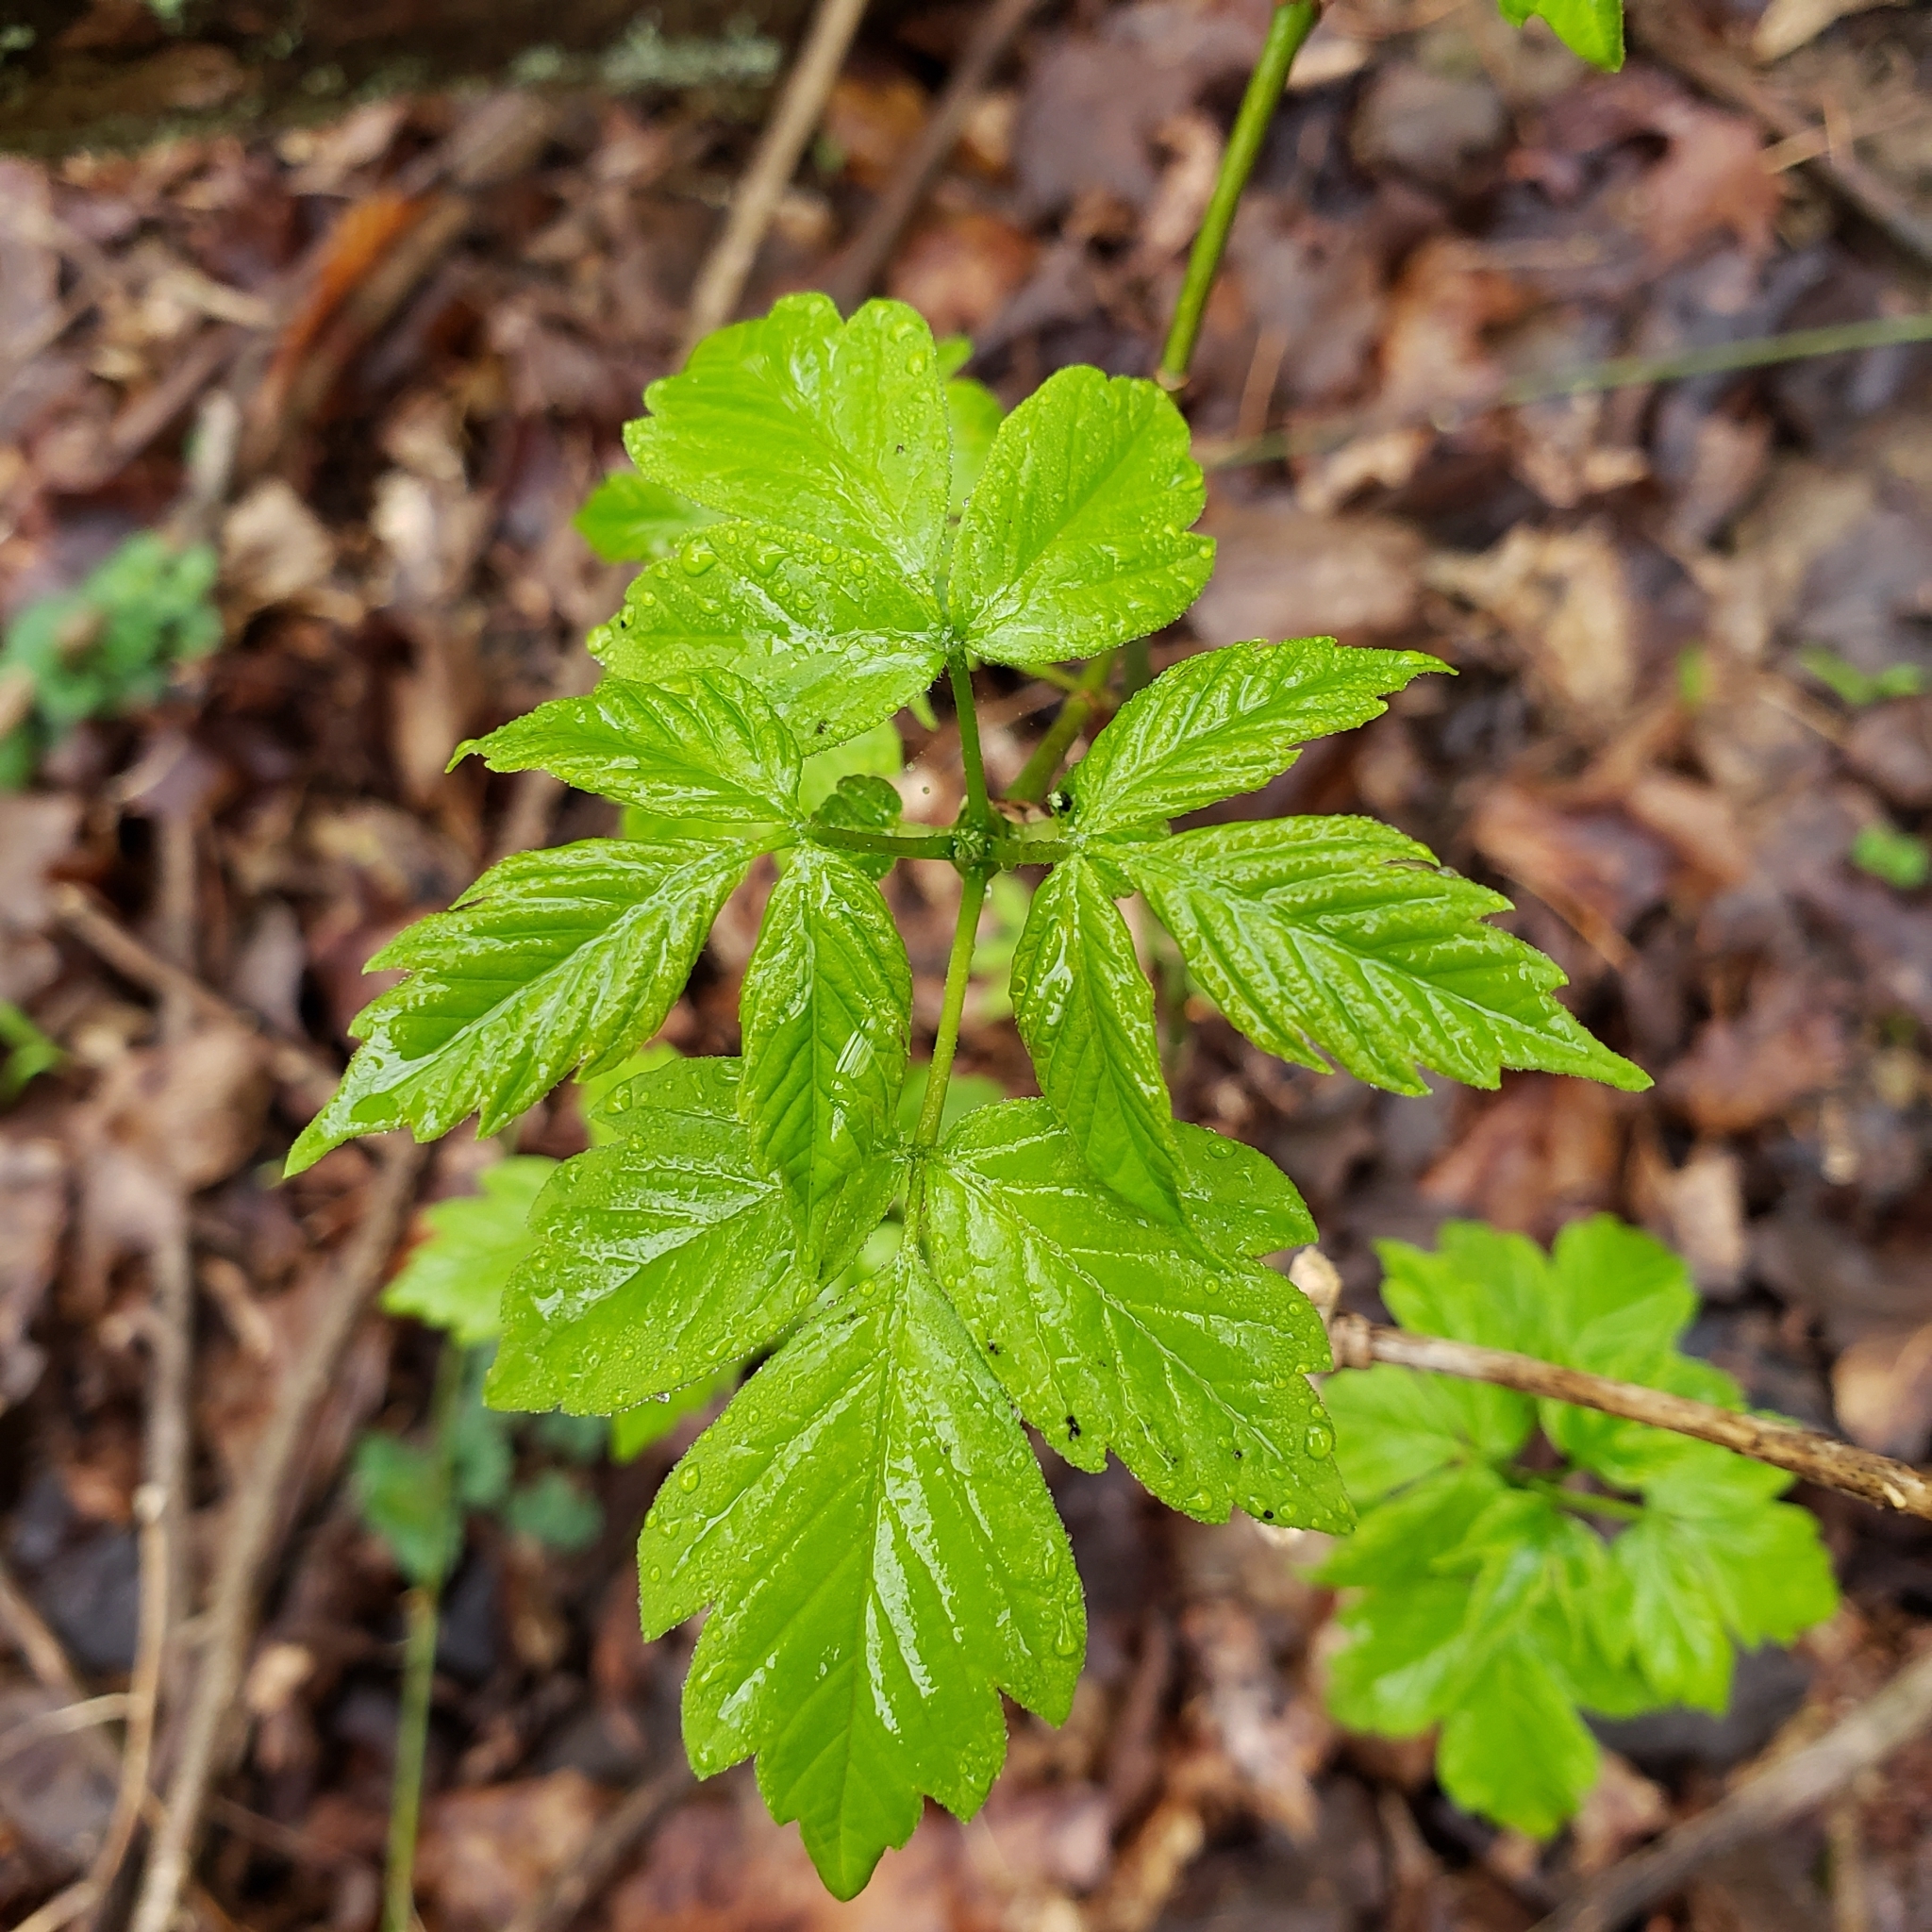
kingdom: Plantae
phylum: Tracheophyta
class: Magnoliopsida
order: Sapindales
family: Sapindaceae
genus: Acer
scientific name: Acer negundo
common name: Ashleaf maple
